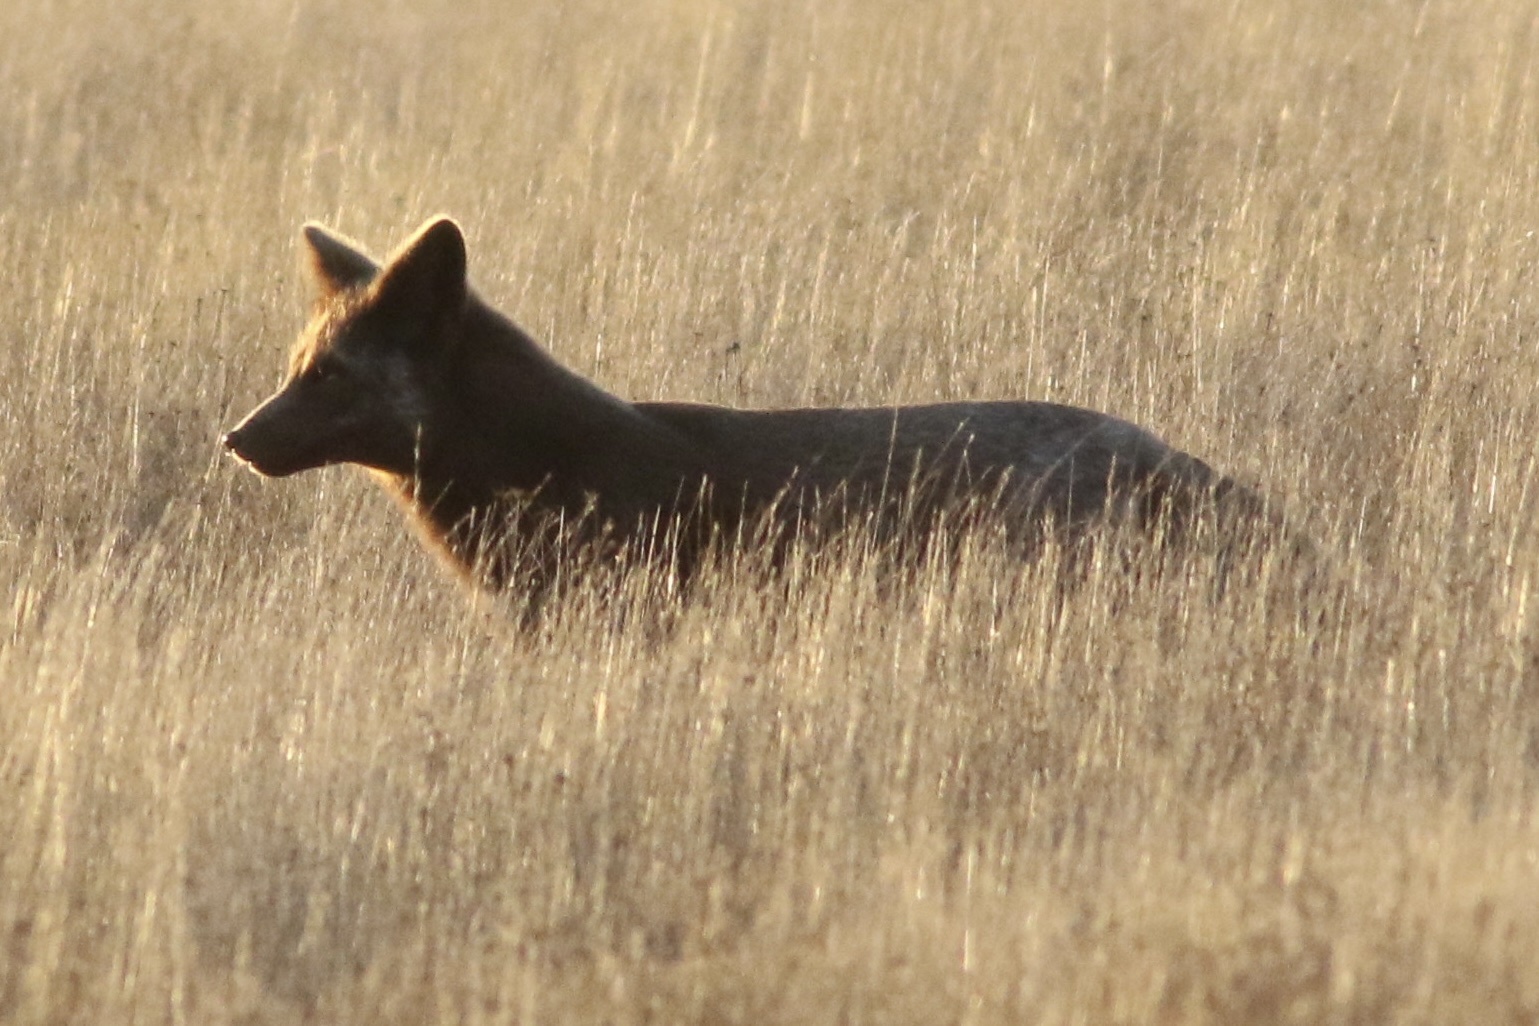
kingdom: Animalia
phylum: Chordata
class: Mammalia
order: Carnivora
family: Canidae
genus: Vulpes
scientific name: Vulpes vulpes
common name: Red fox
